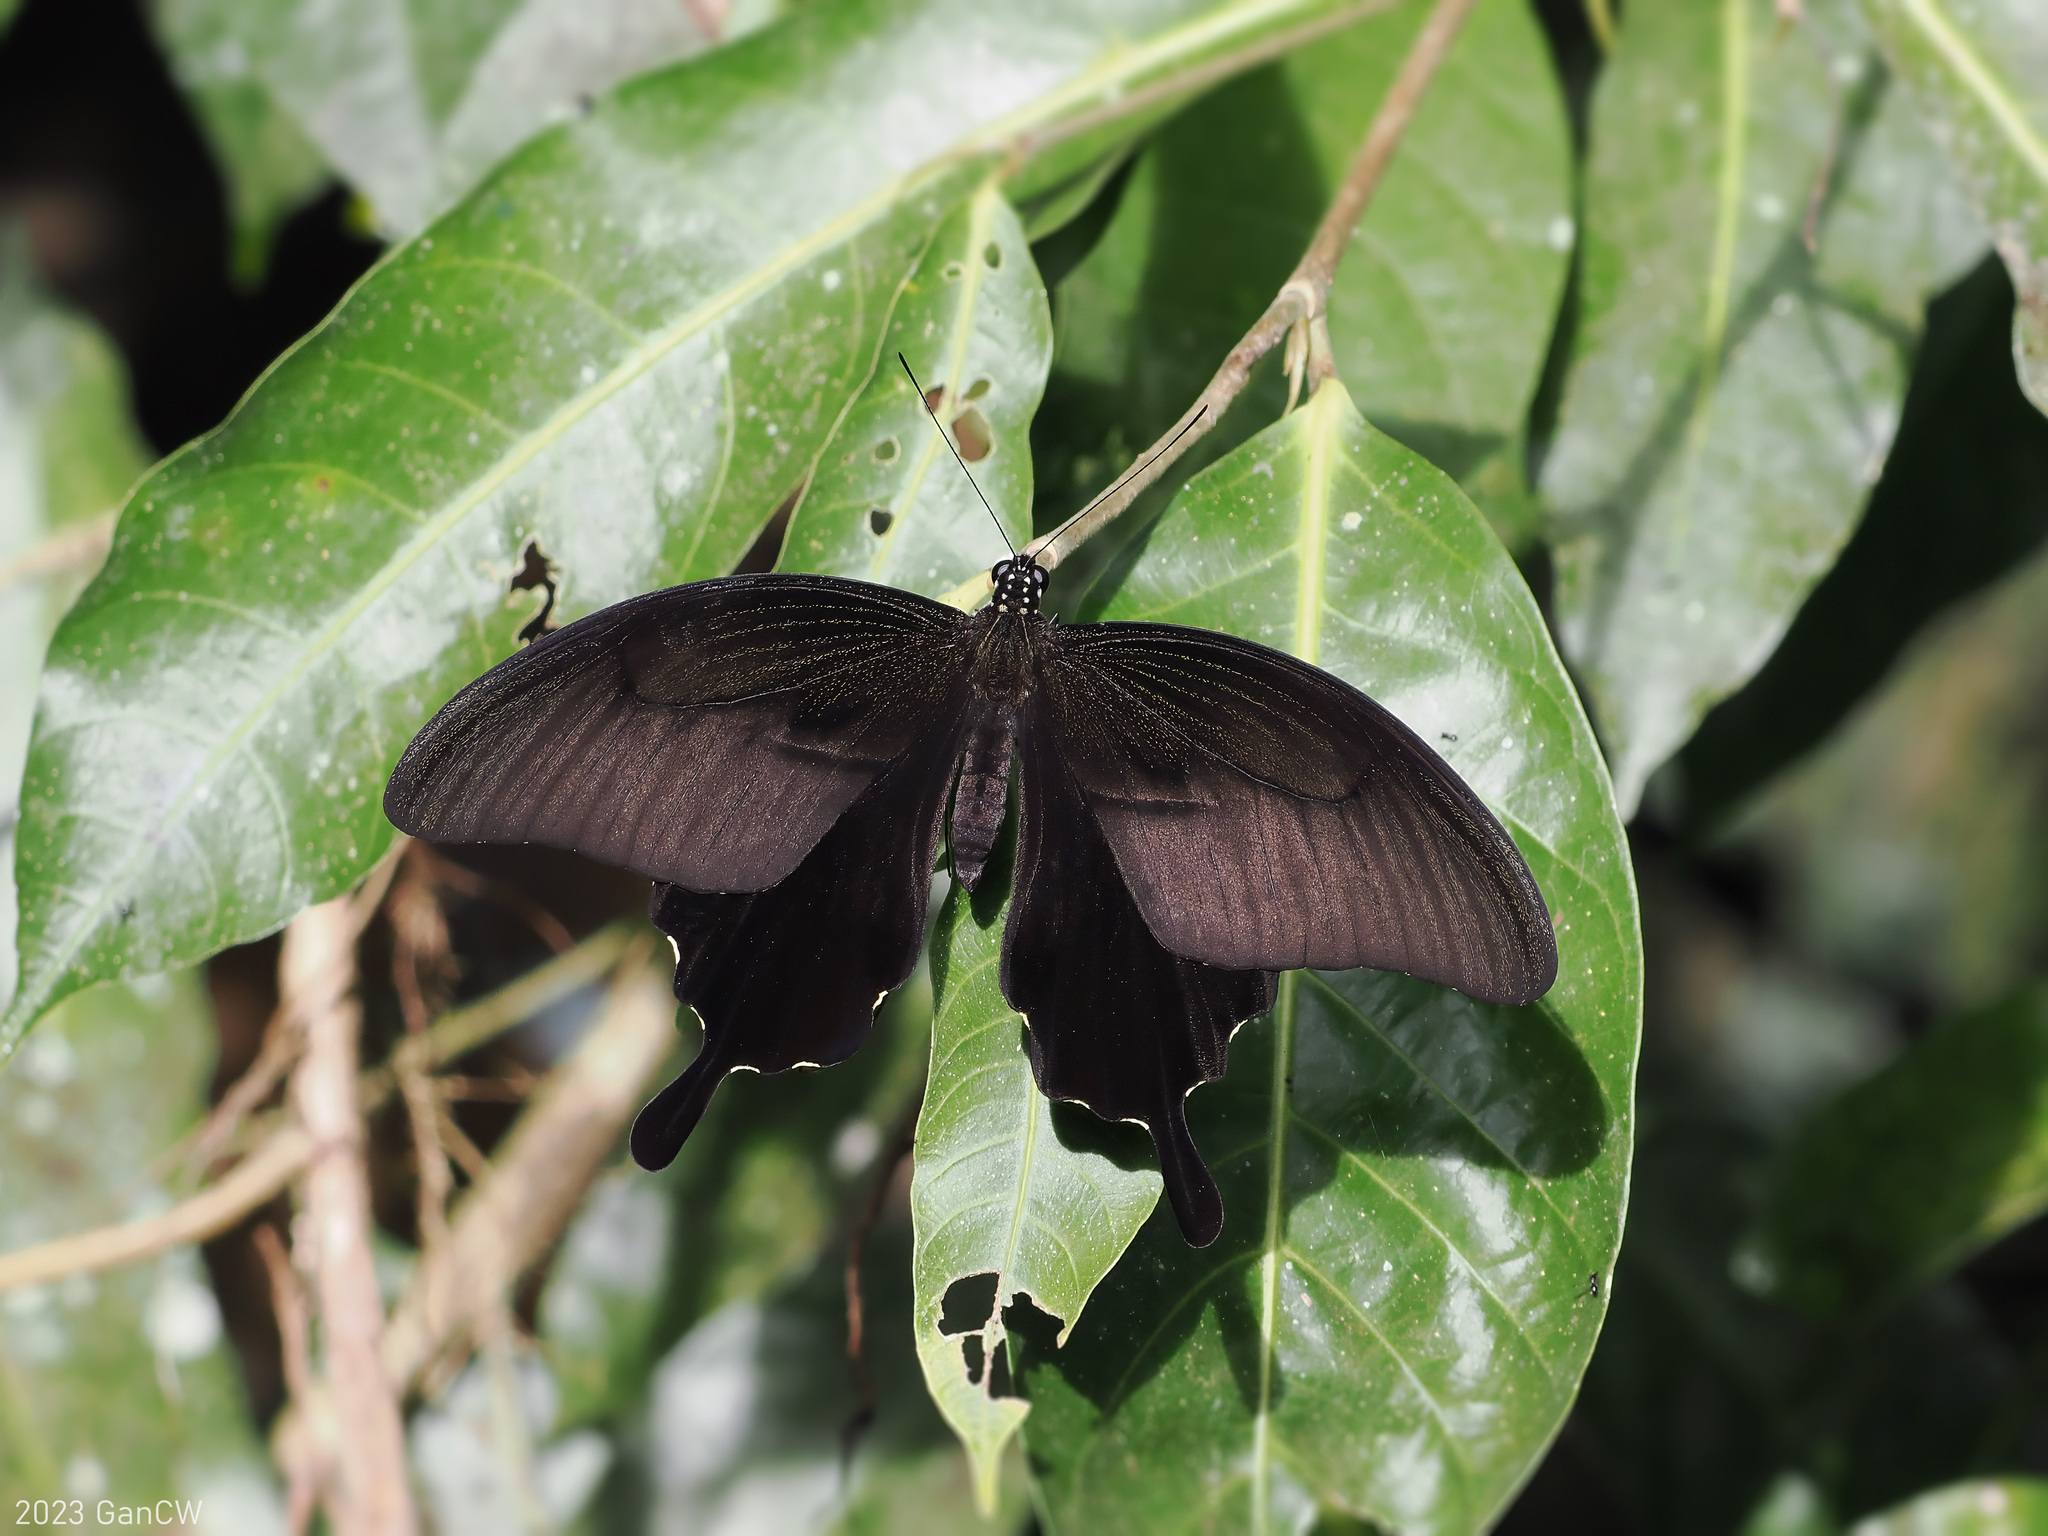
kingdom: Animalia
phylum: Arthropoda
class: Insecta
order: Lepidoptera
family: Papilionidae
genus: Papilio
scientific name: Papilio sataspes
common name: Sulawesi red helen
